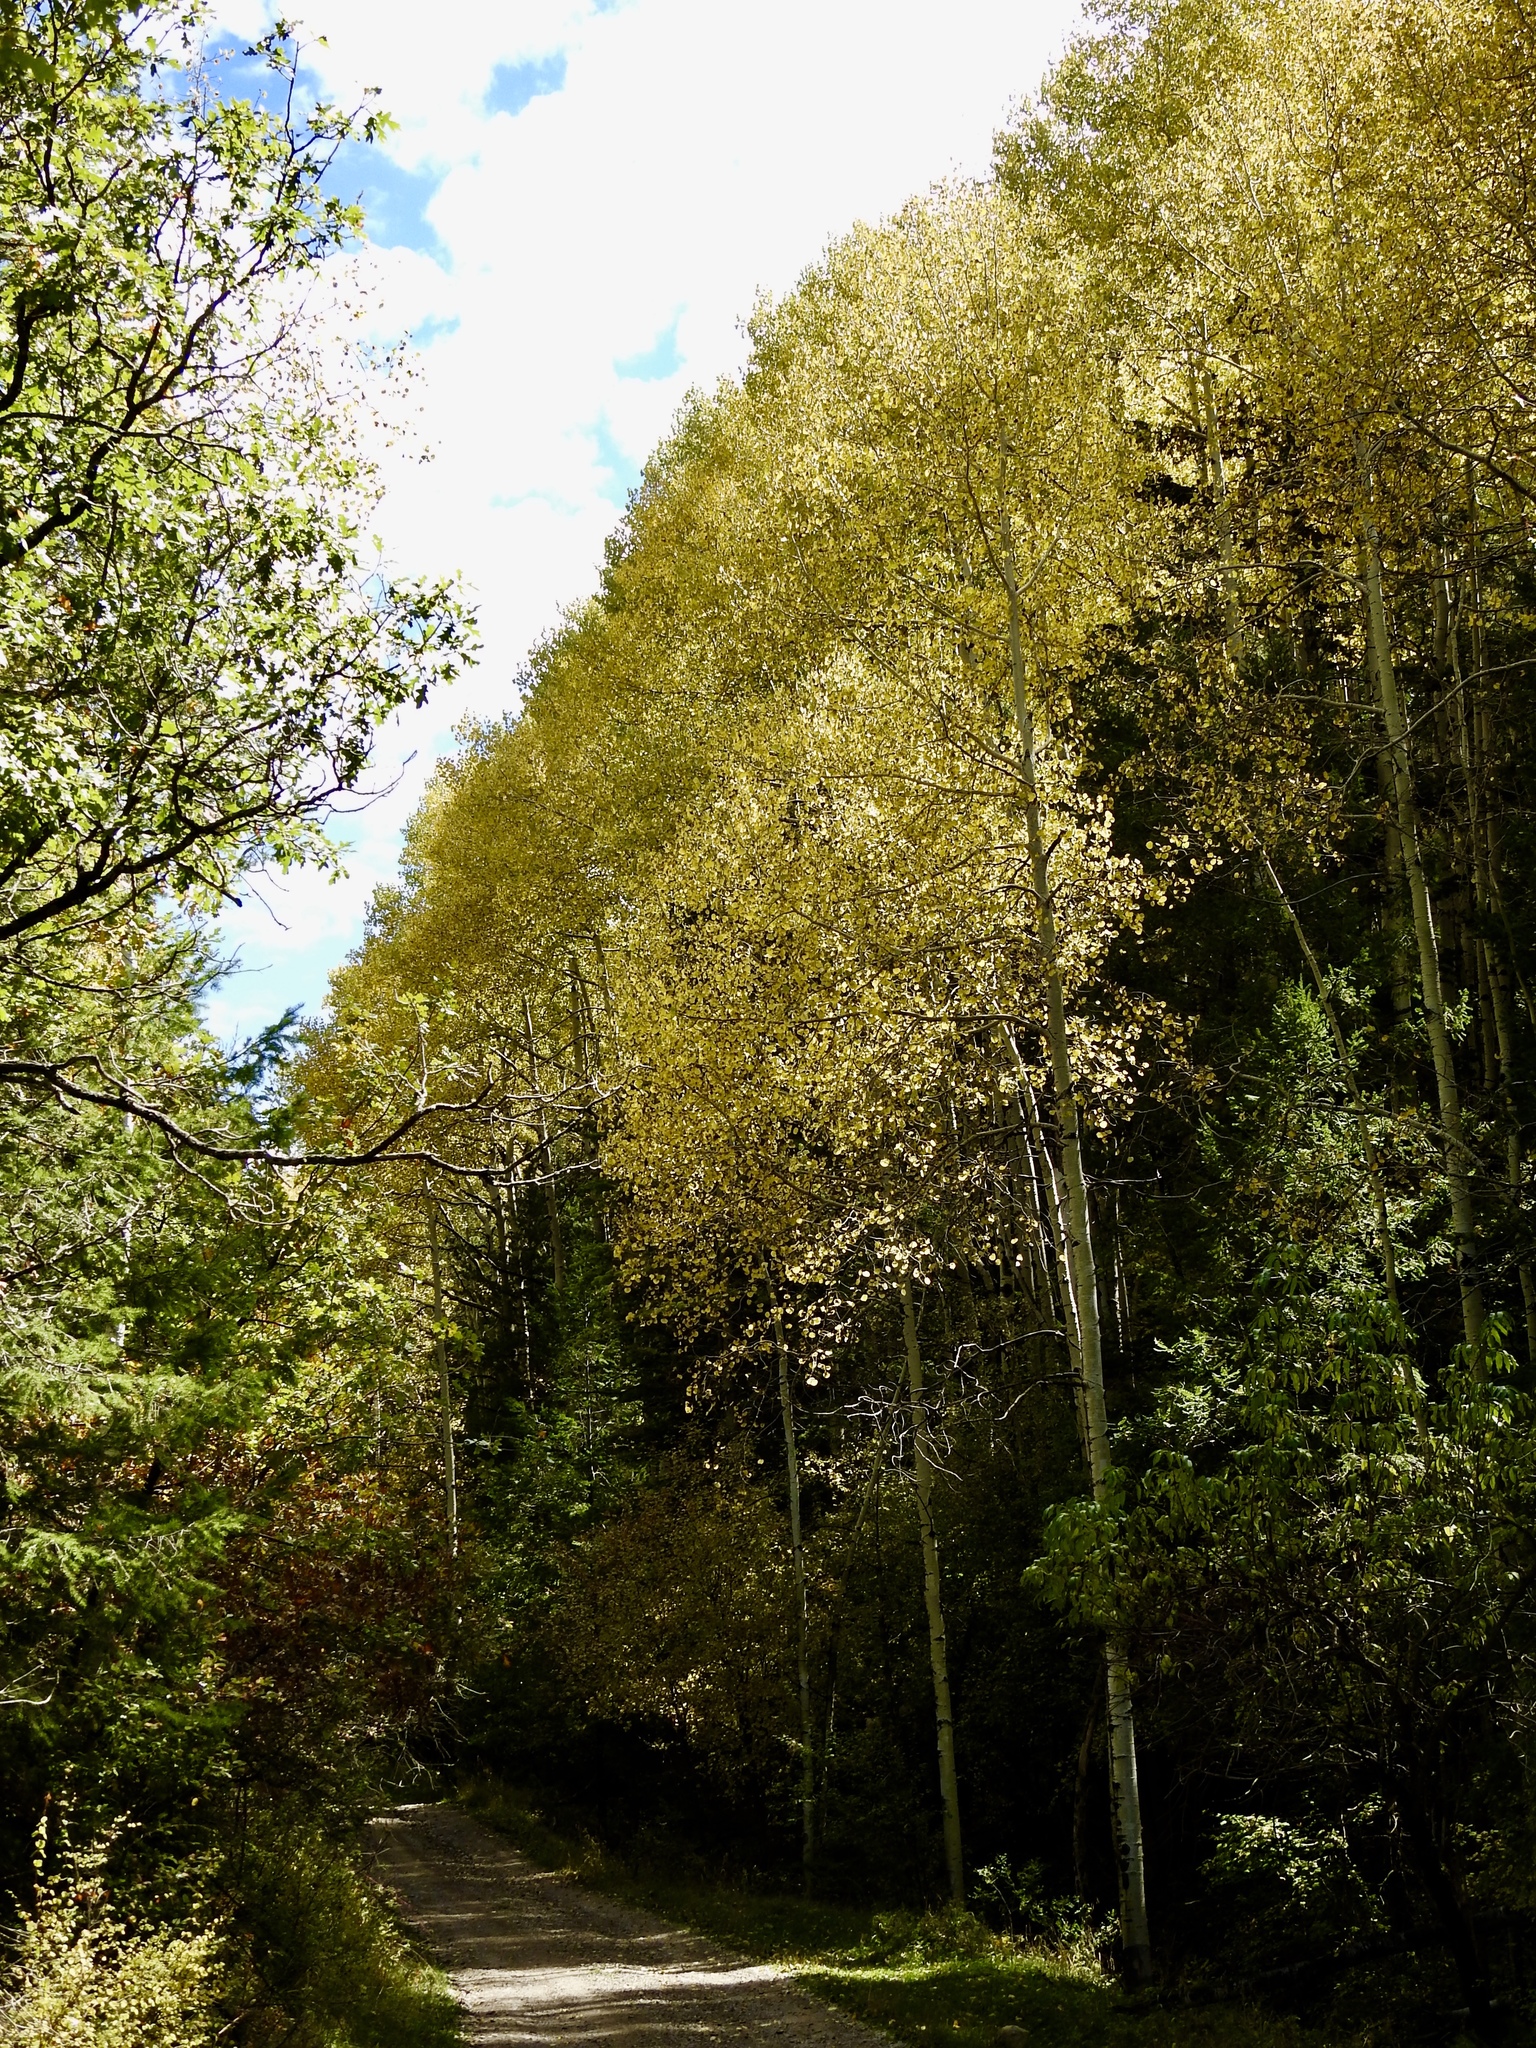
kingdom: Plantae
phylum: Tracheophyta
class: Magnoliopsida
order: Malpighiales
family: Salicaceae
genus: Populus
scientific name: Populus tremuloides
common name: Quaking aspen
